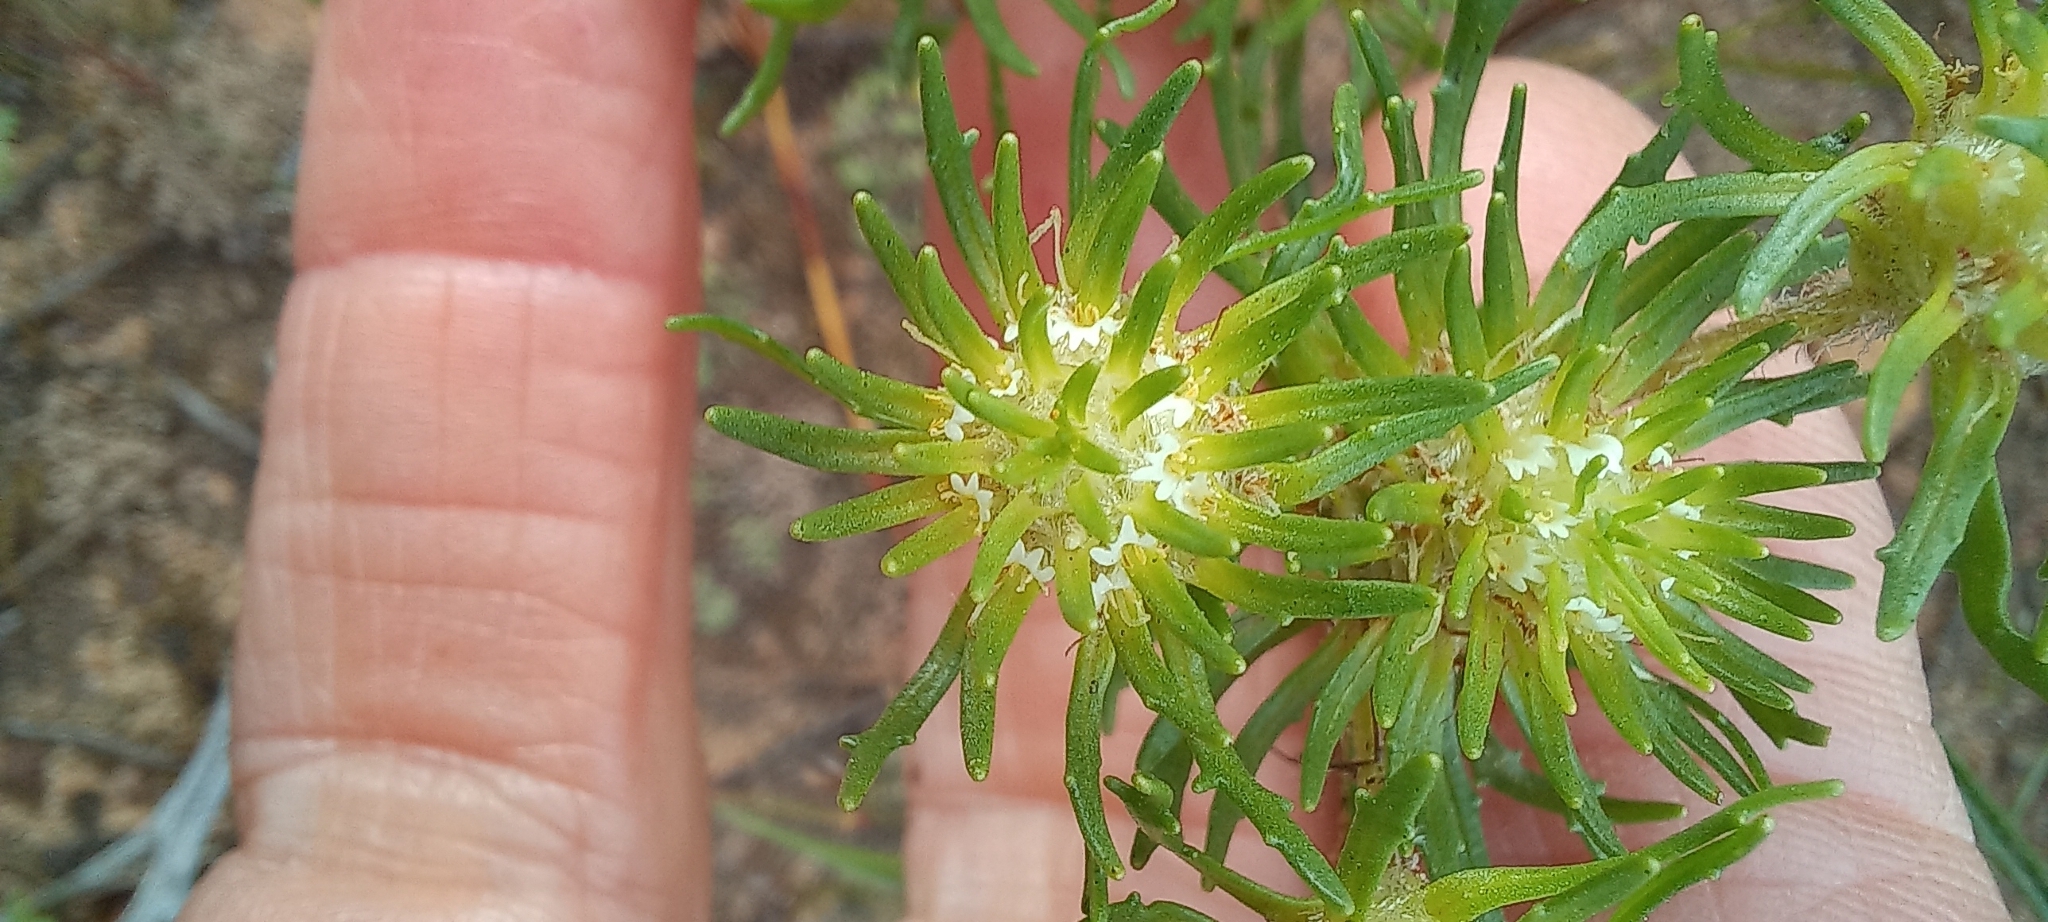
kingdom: Plantae
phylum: Tracheophyta
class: Magnoliopsida
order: Lamiales
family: Scrophulariaceae
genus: Dischisma
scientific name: Dischisma capitatum
